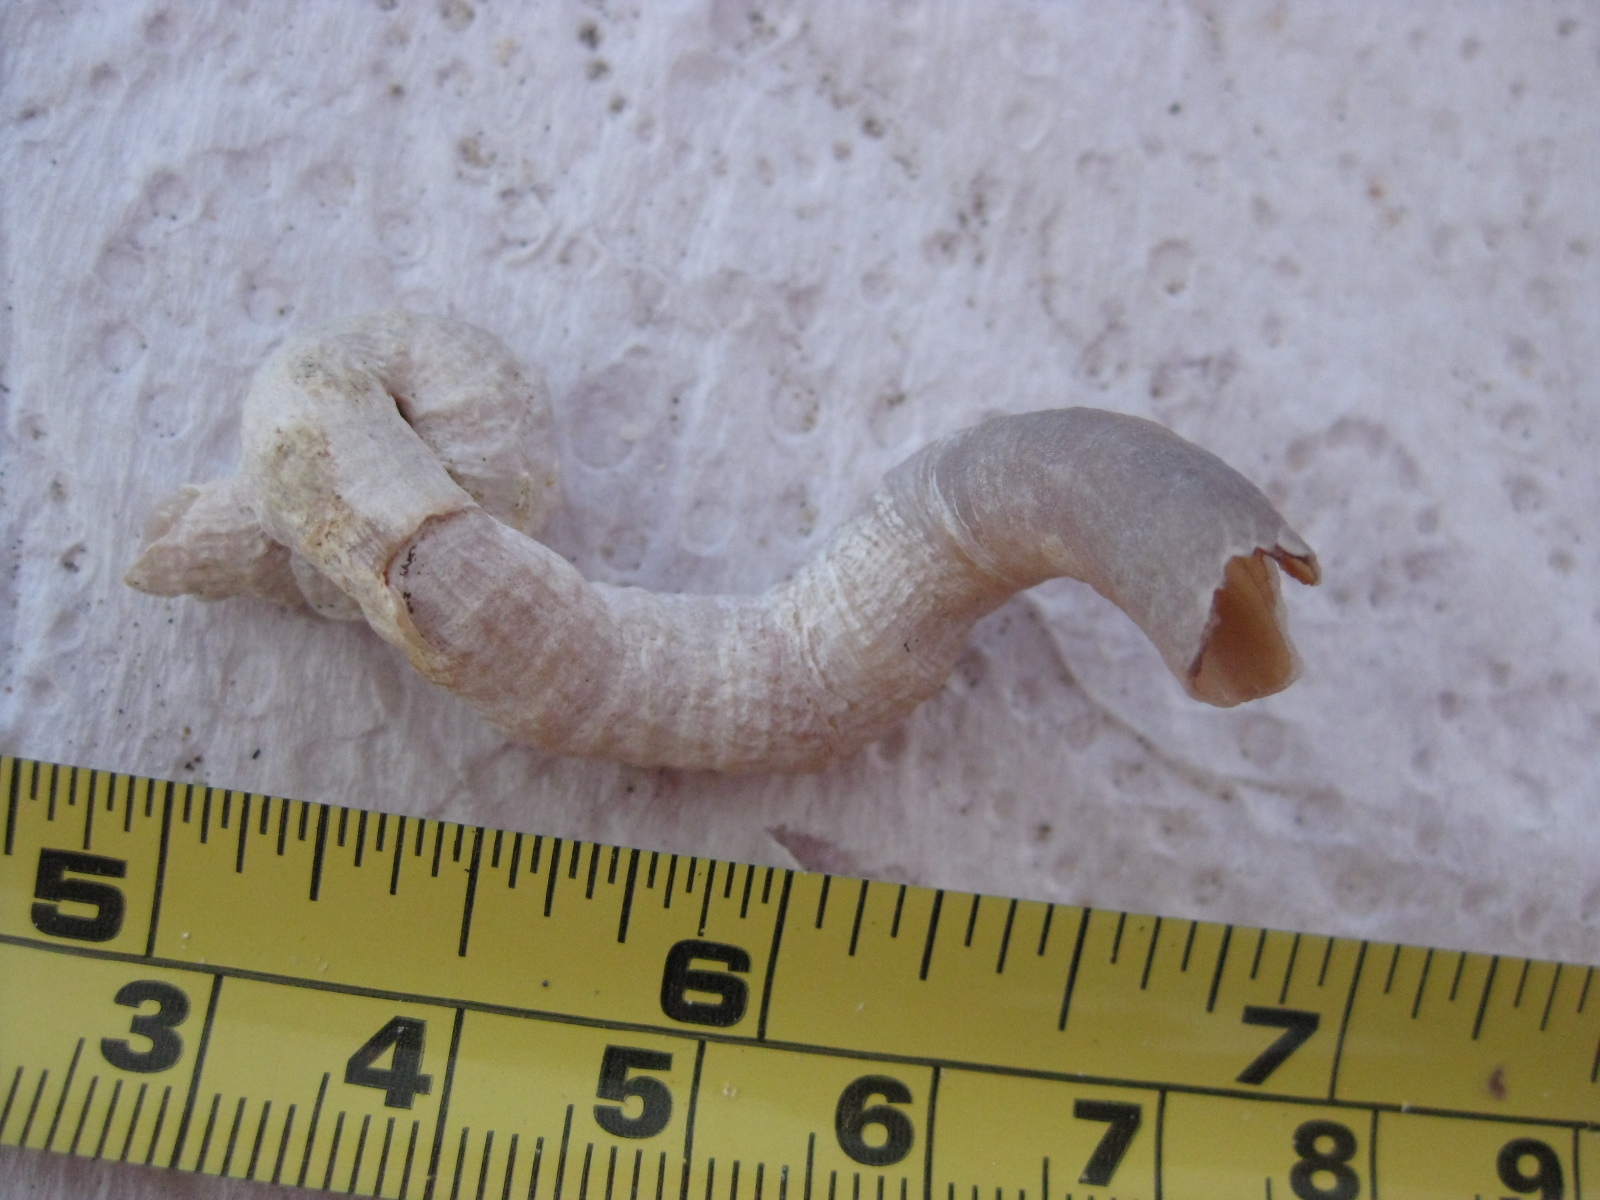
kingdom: Animalia
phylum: Mollusca
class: Gastropoda
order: Littorinimorpha
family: Vermetidae
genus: Thylacodes
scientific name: Thylacodes aotearoicus
